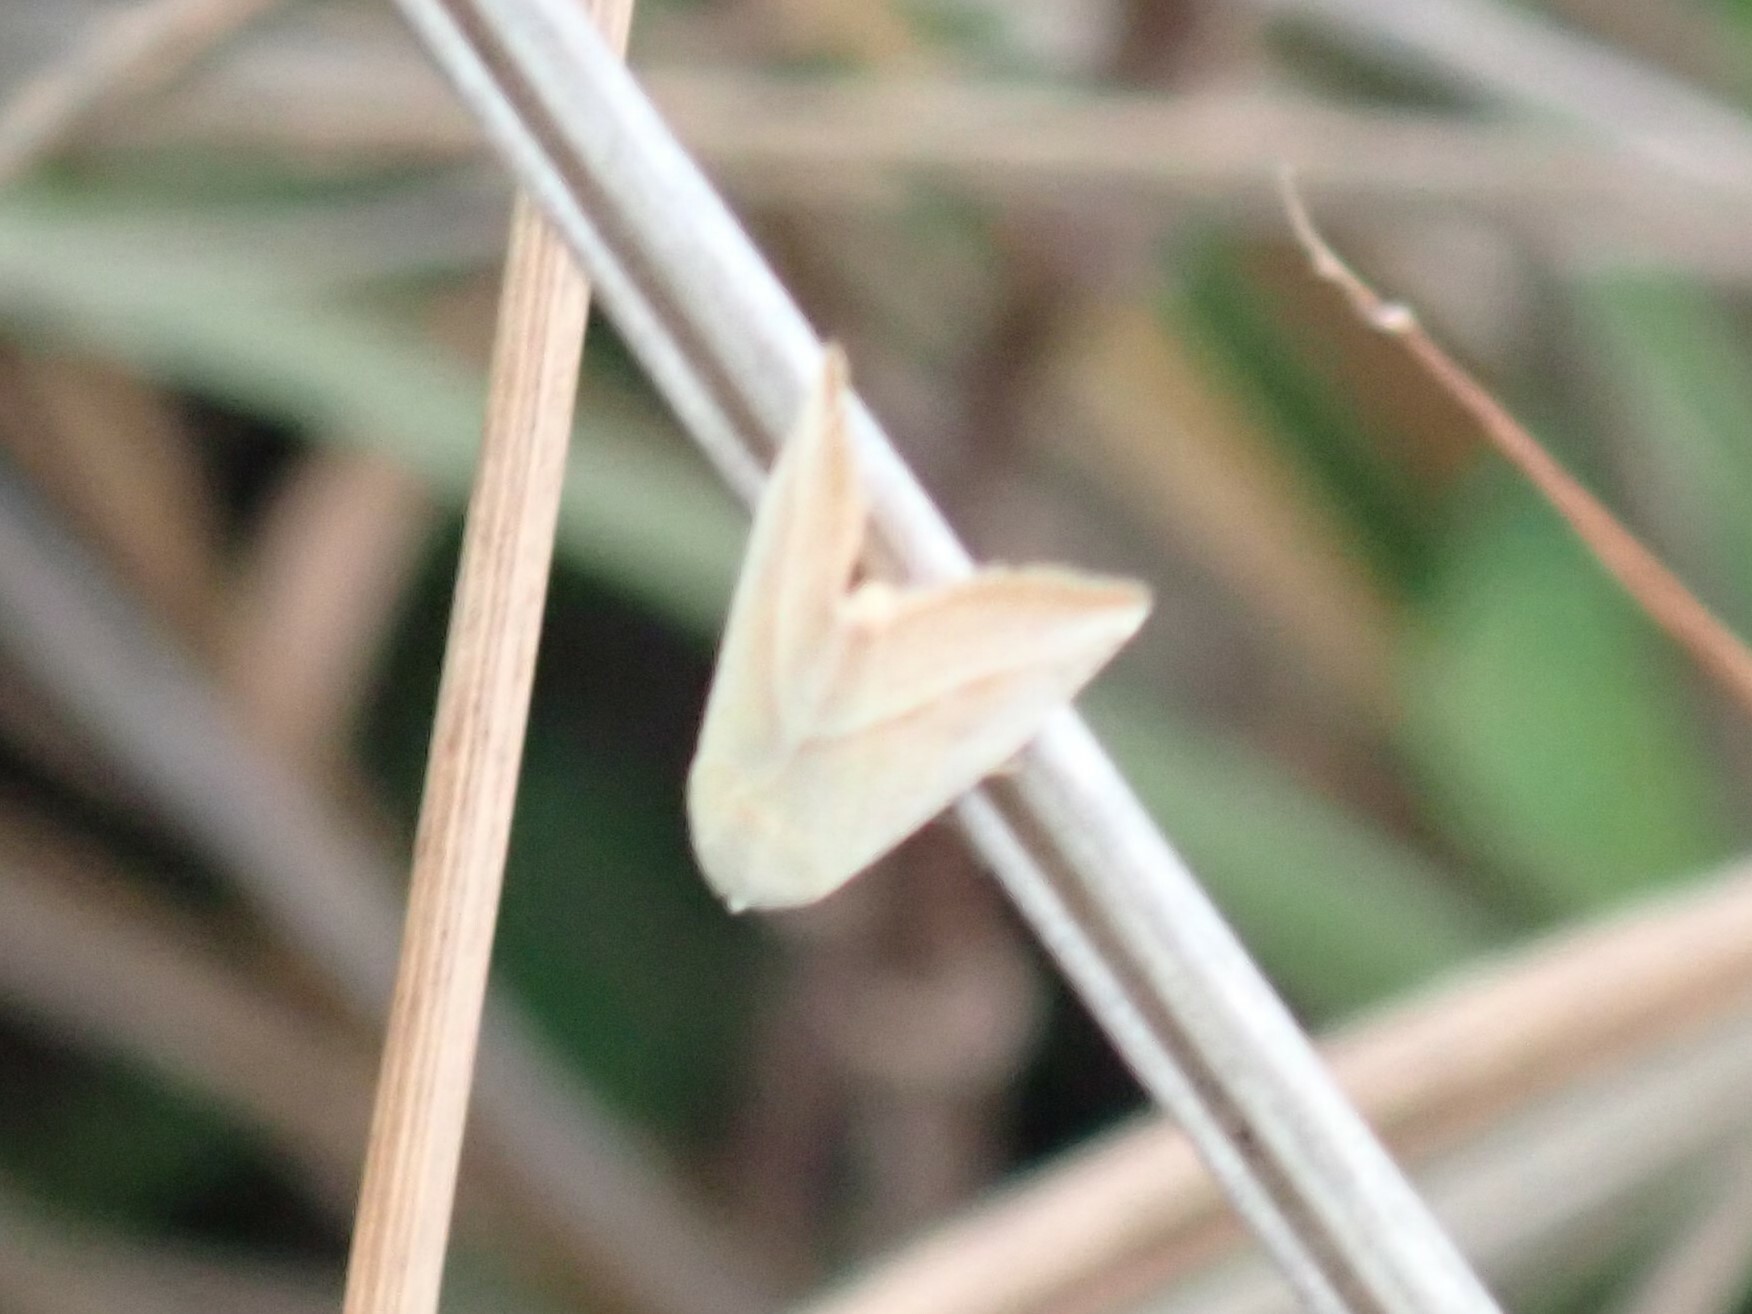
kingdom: Animalia
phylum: Arthropoda
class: Insecta
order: Lepidoptera
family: Noctuidae
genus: Eublemma
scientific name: Eublemma recta
